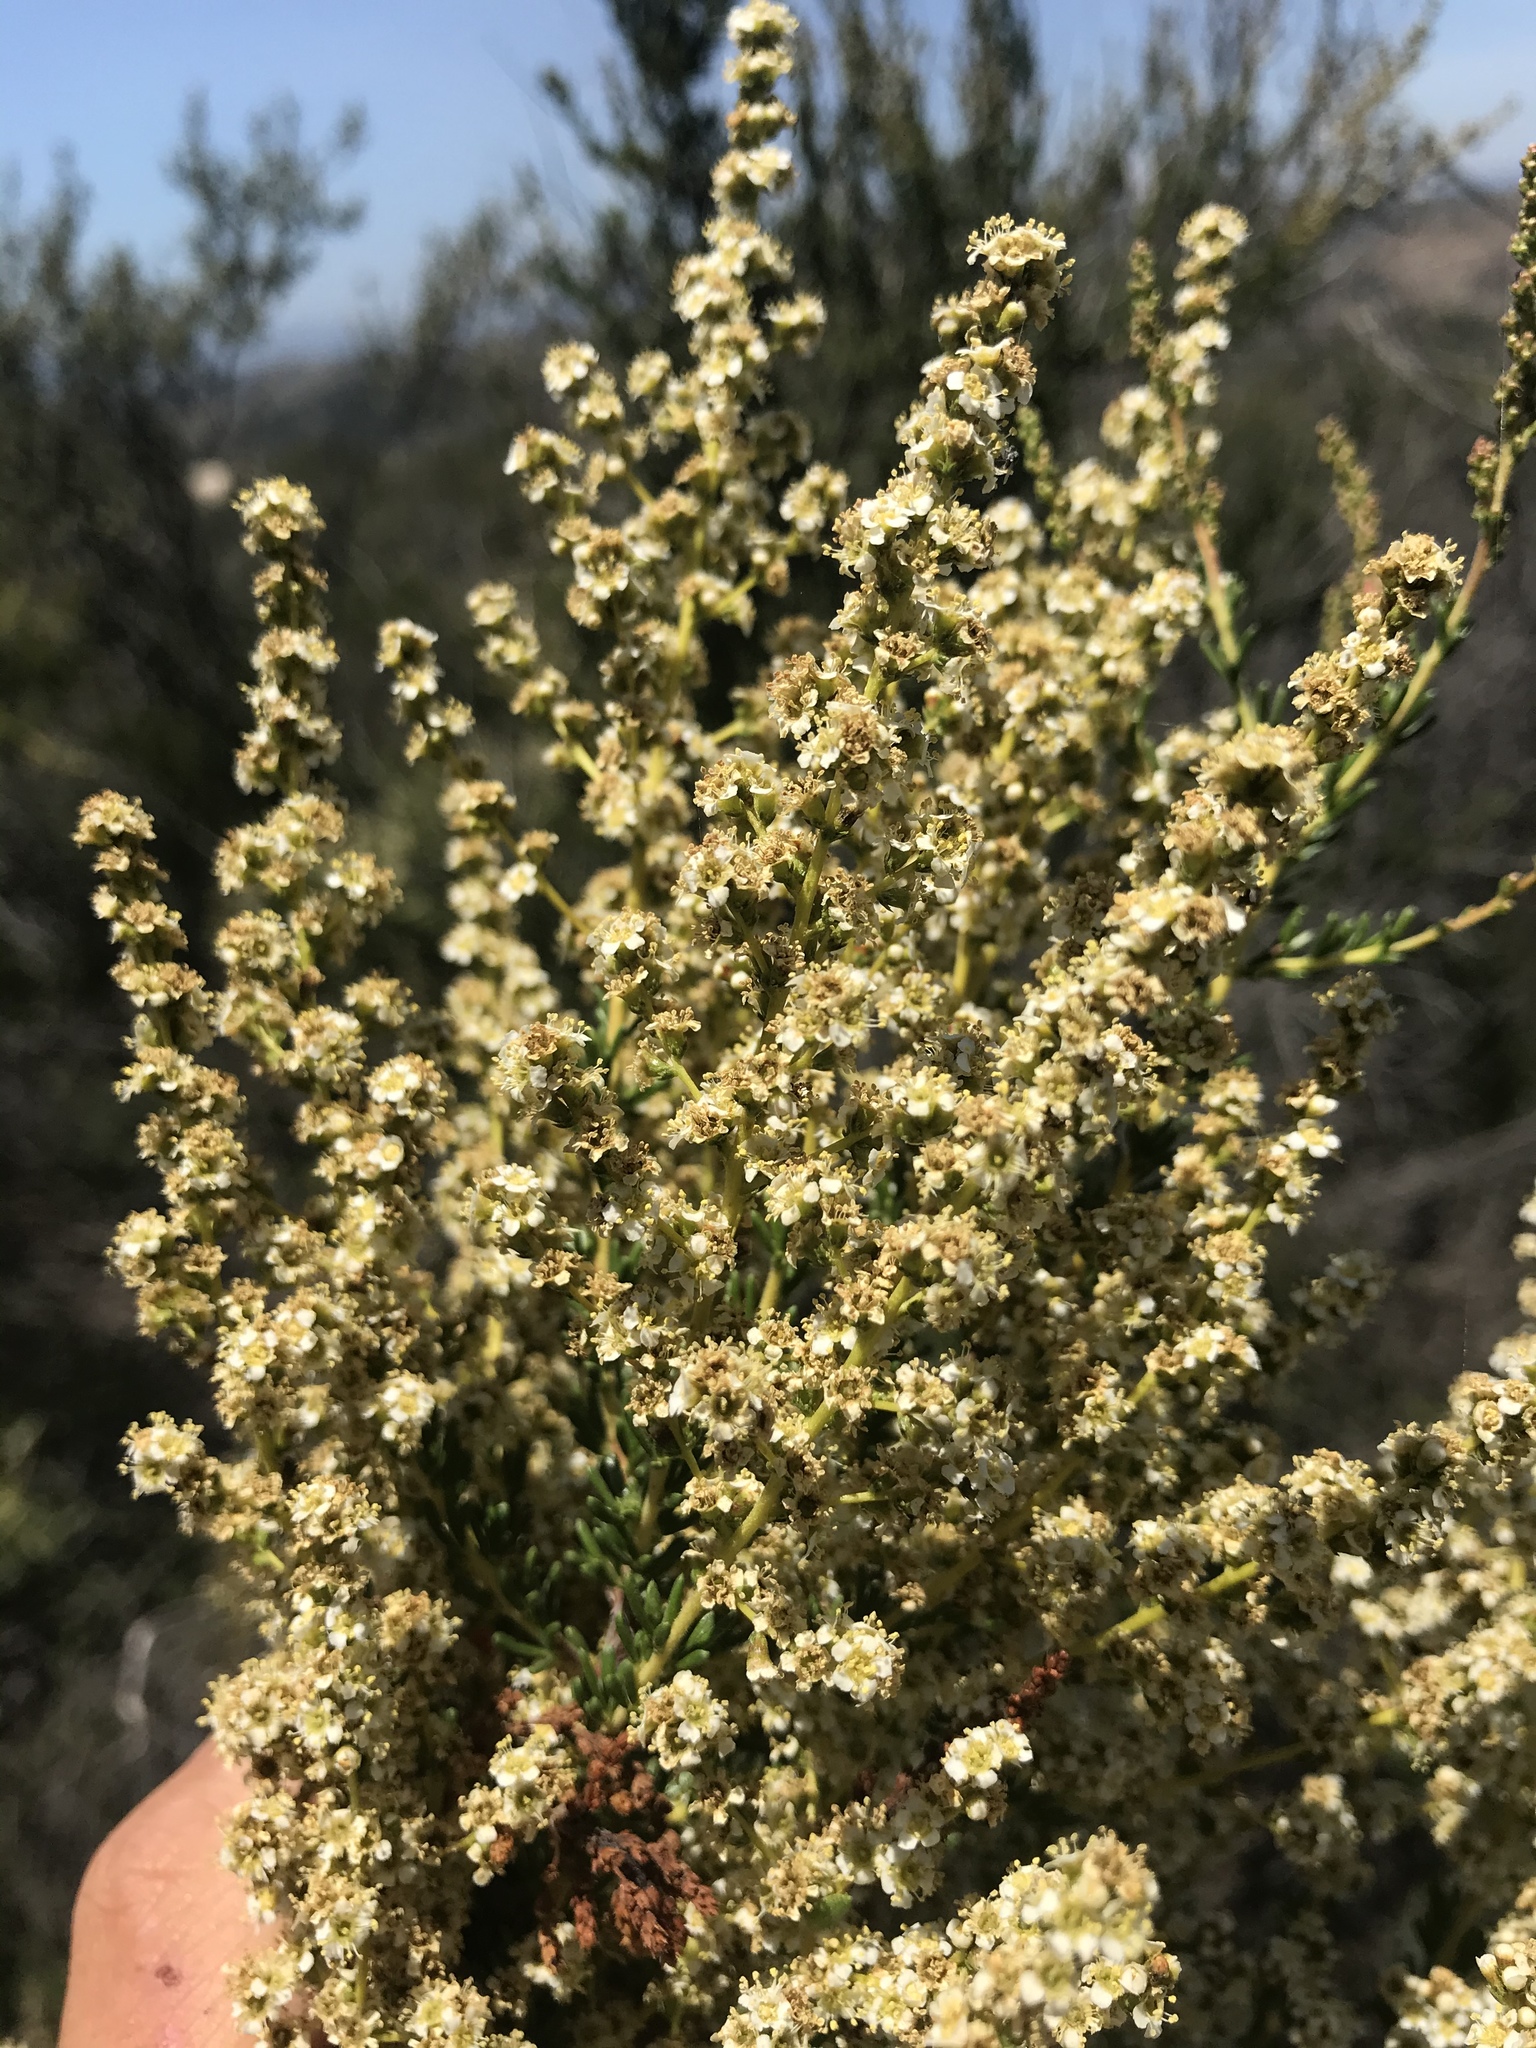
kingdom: Plantae
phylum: Tracheophyta
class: Magnoliopsida
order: Rosales
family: Rosaceae
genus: Adenostoma
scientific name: Adenostoma fasciculatum
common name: Chamise
